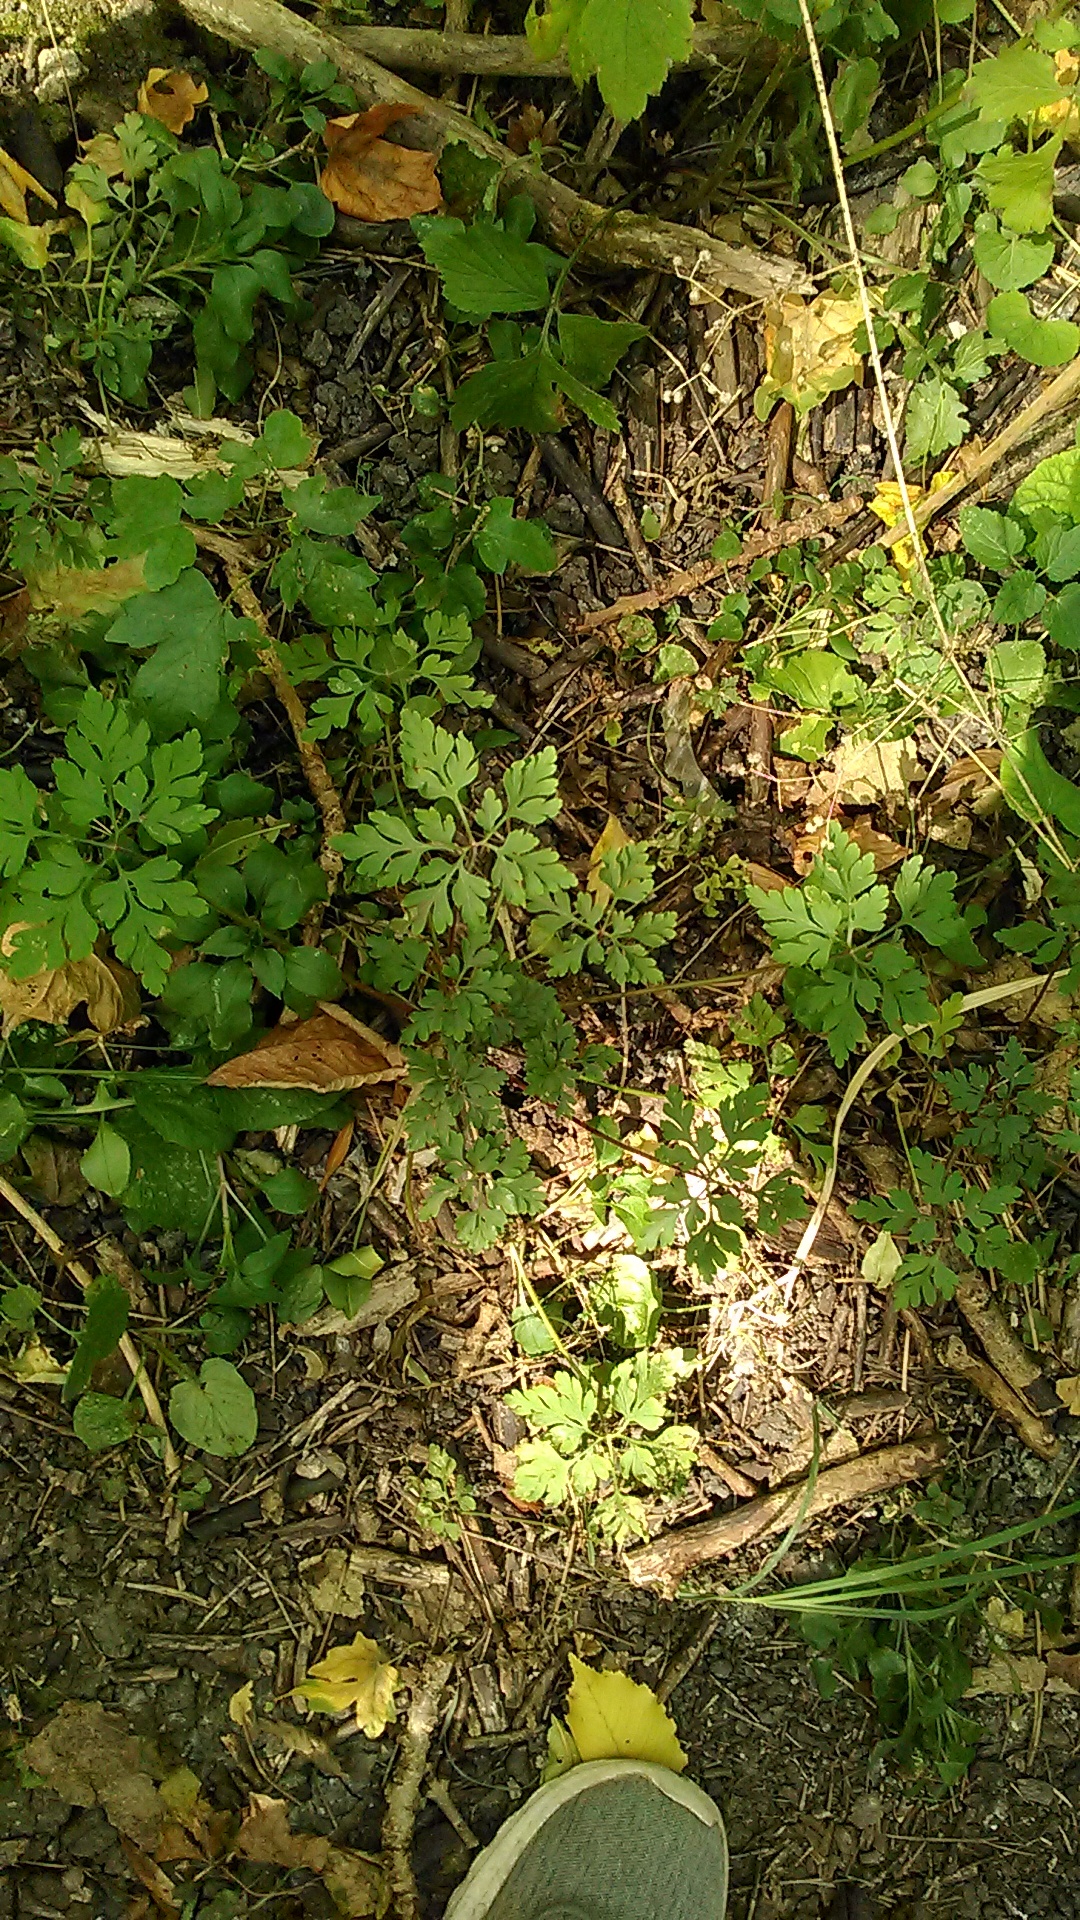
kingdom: Plantae
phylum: Tracheophyta
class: Magnoliopsida
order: Geraniales
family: Geraniaceae
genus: Geranium
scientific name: Geranium robertianum
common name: Herb-robert
